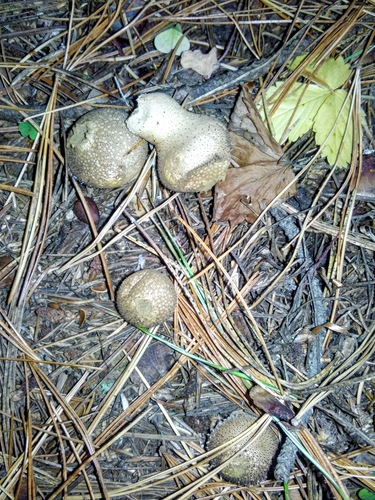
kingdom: Fungi
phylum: Basidiomycota
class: Agaricomycetes
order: Agaricales
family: Lycoperdaceae
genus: Lycoperdon
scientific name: Lycoperdon perlatum
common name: Common puffball
